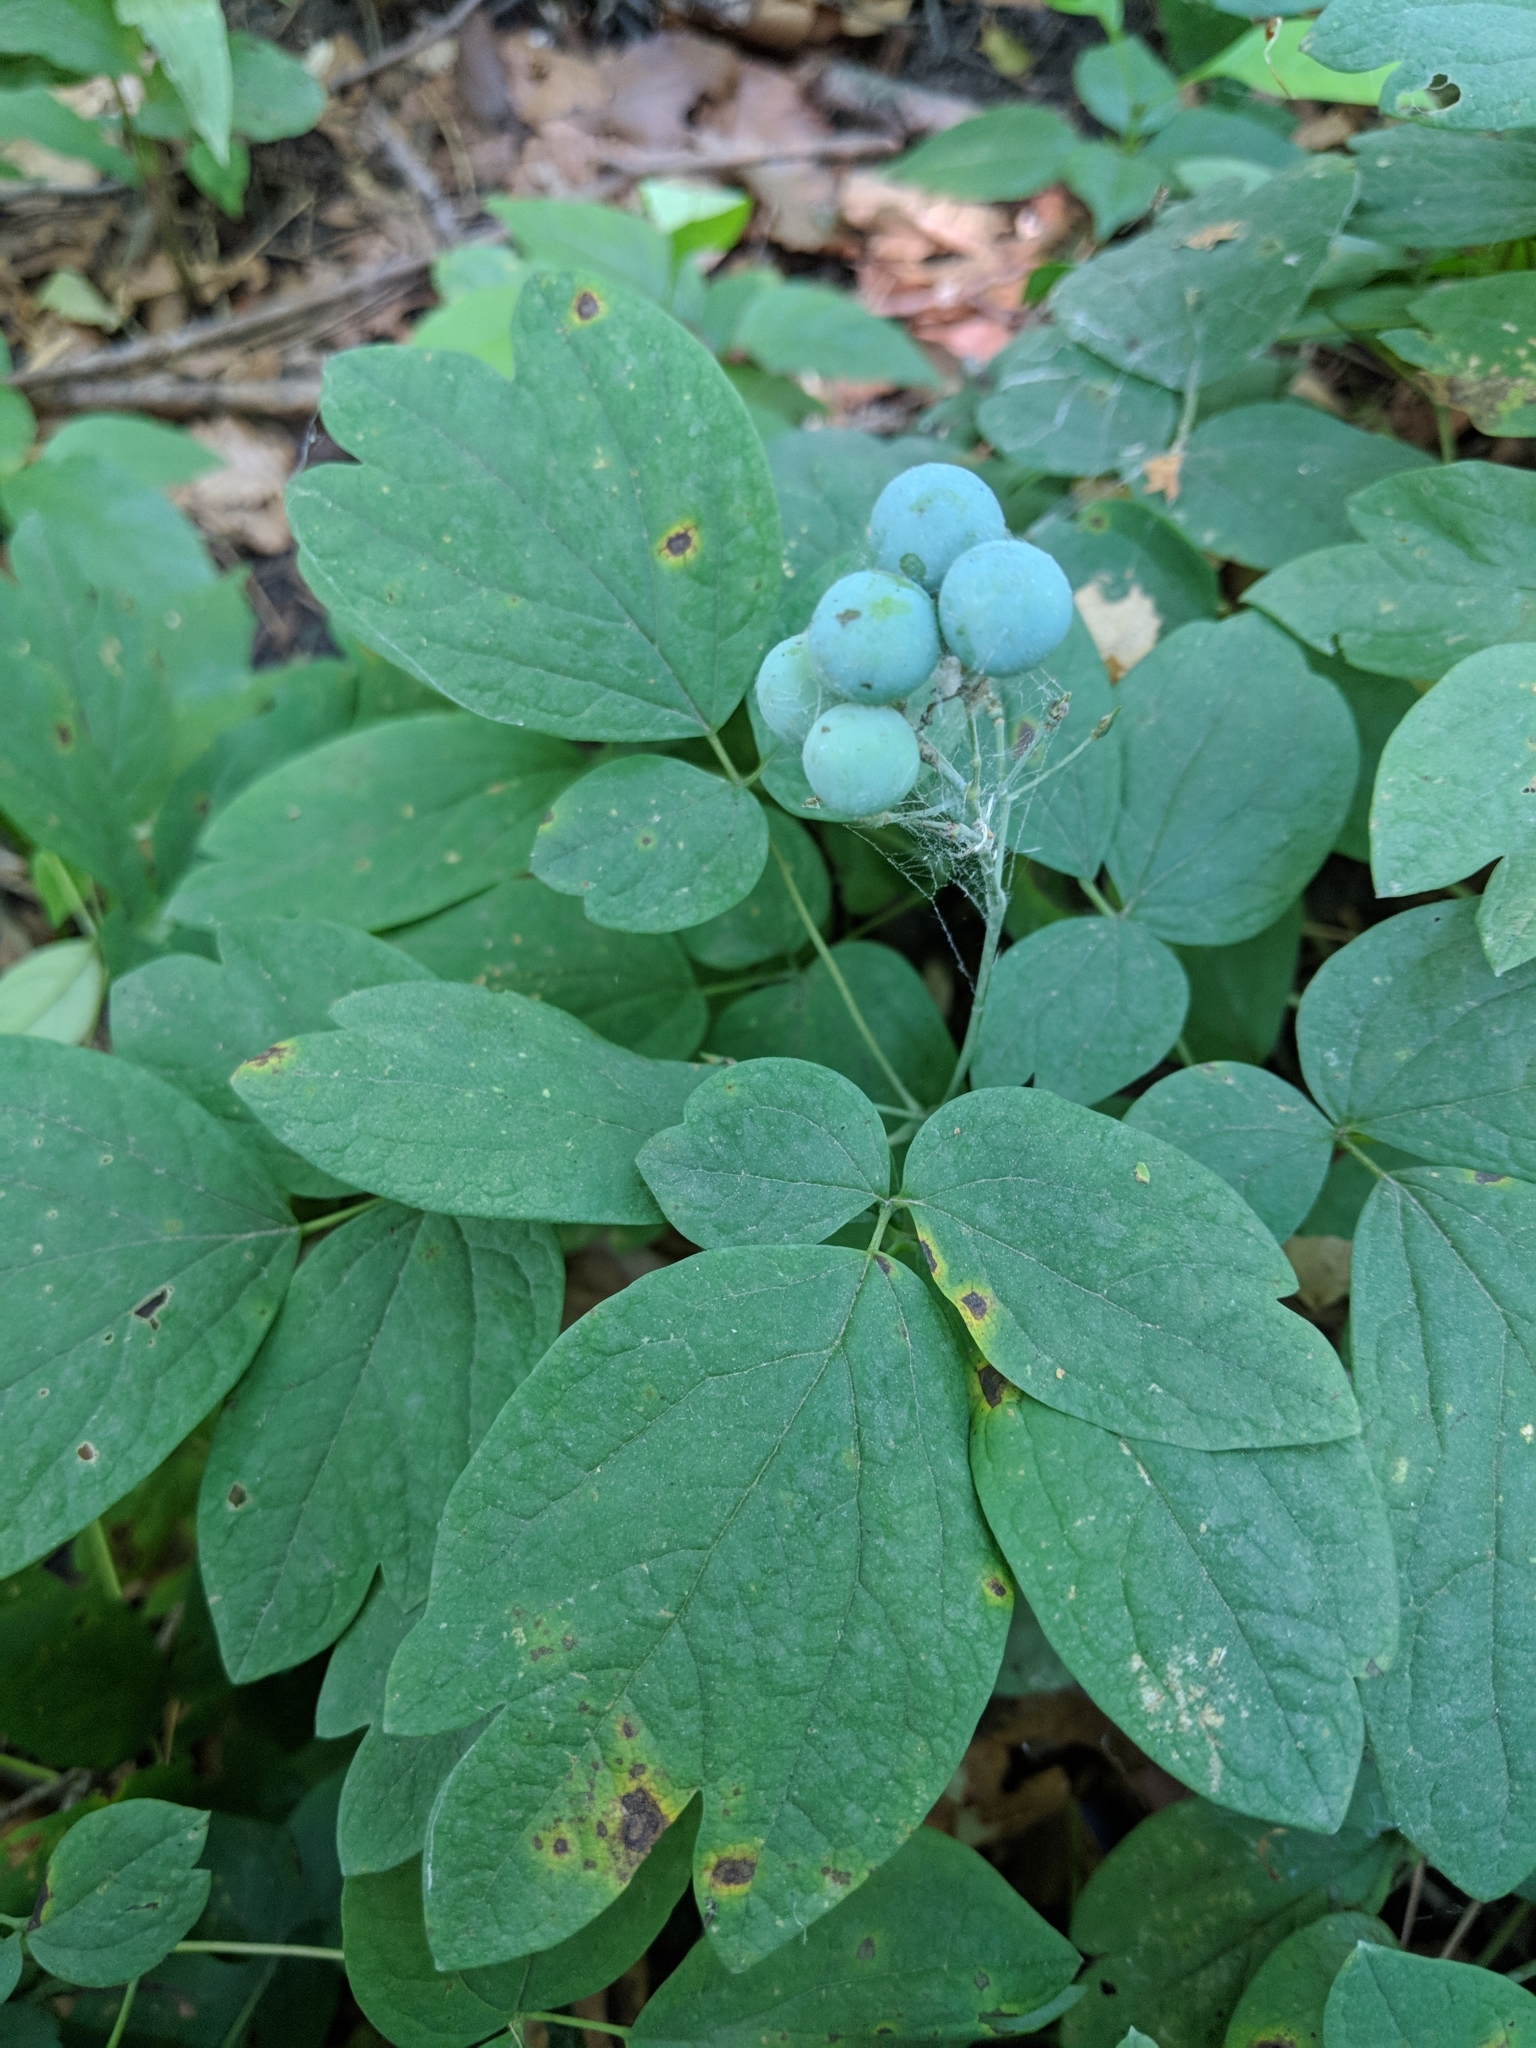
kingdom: Plantae
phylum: Tracheophyta
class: Magnoliopsida
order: Ranunculales
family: Berberidaceae
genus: Caulophyllum
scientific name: Caulophyllum thalictroides
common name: Blue cohosh
